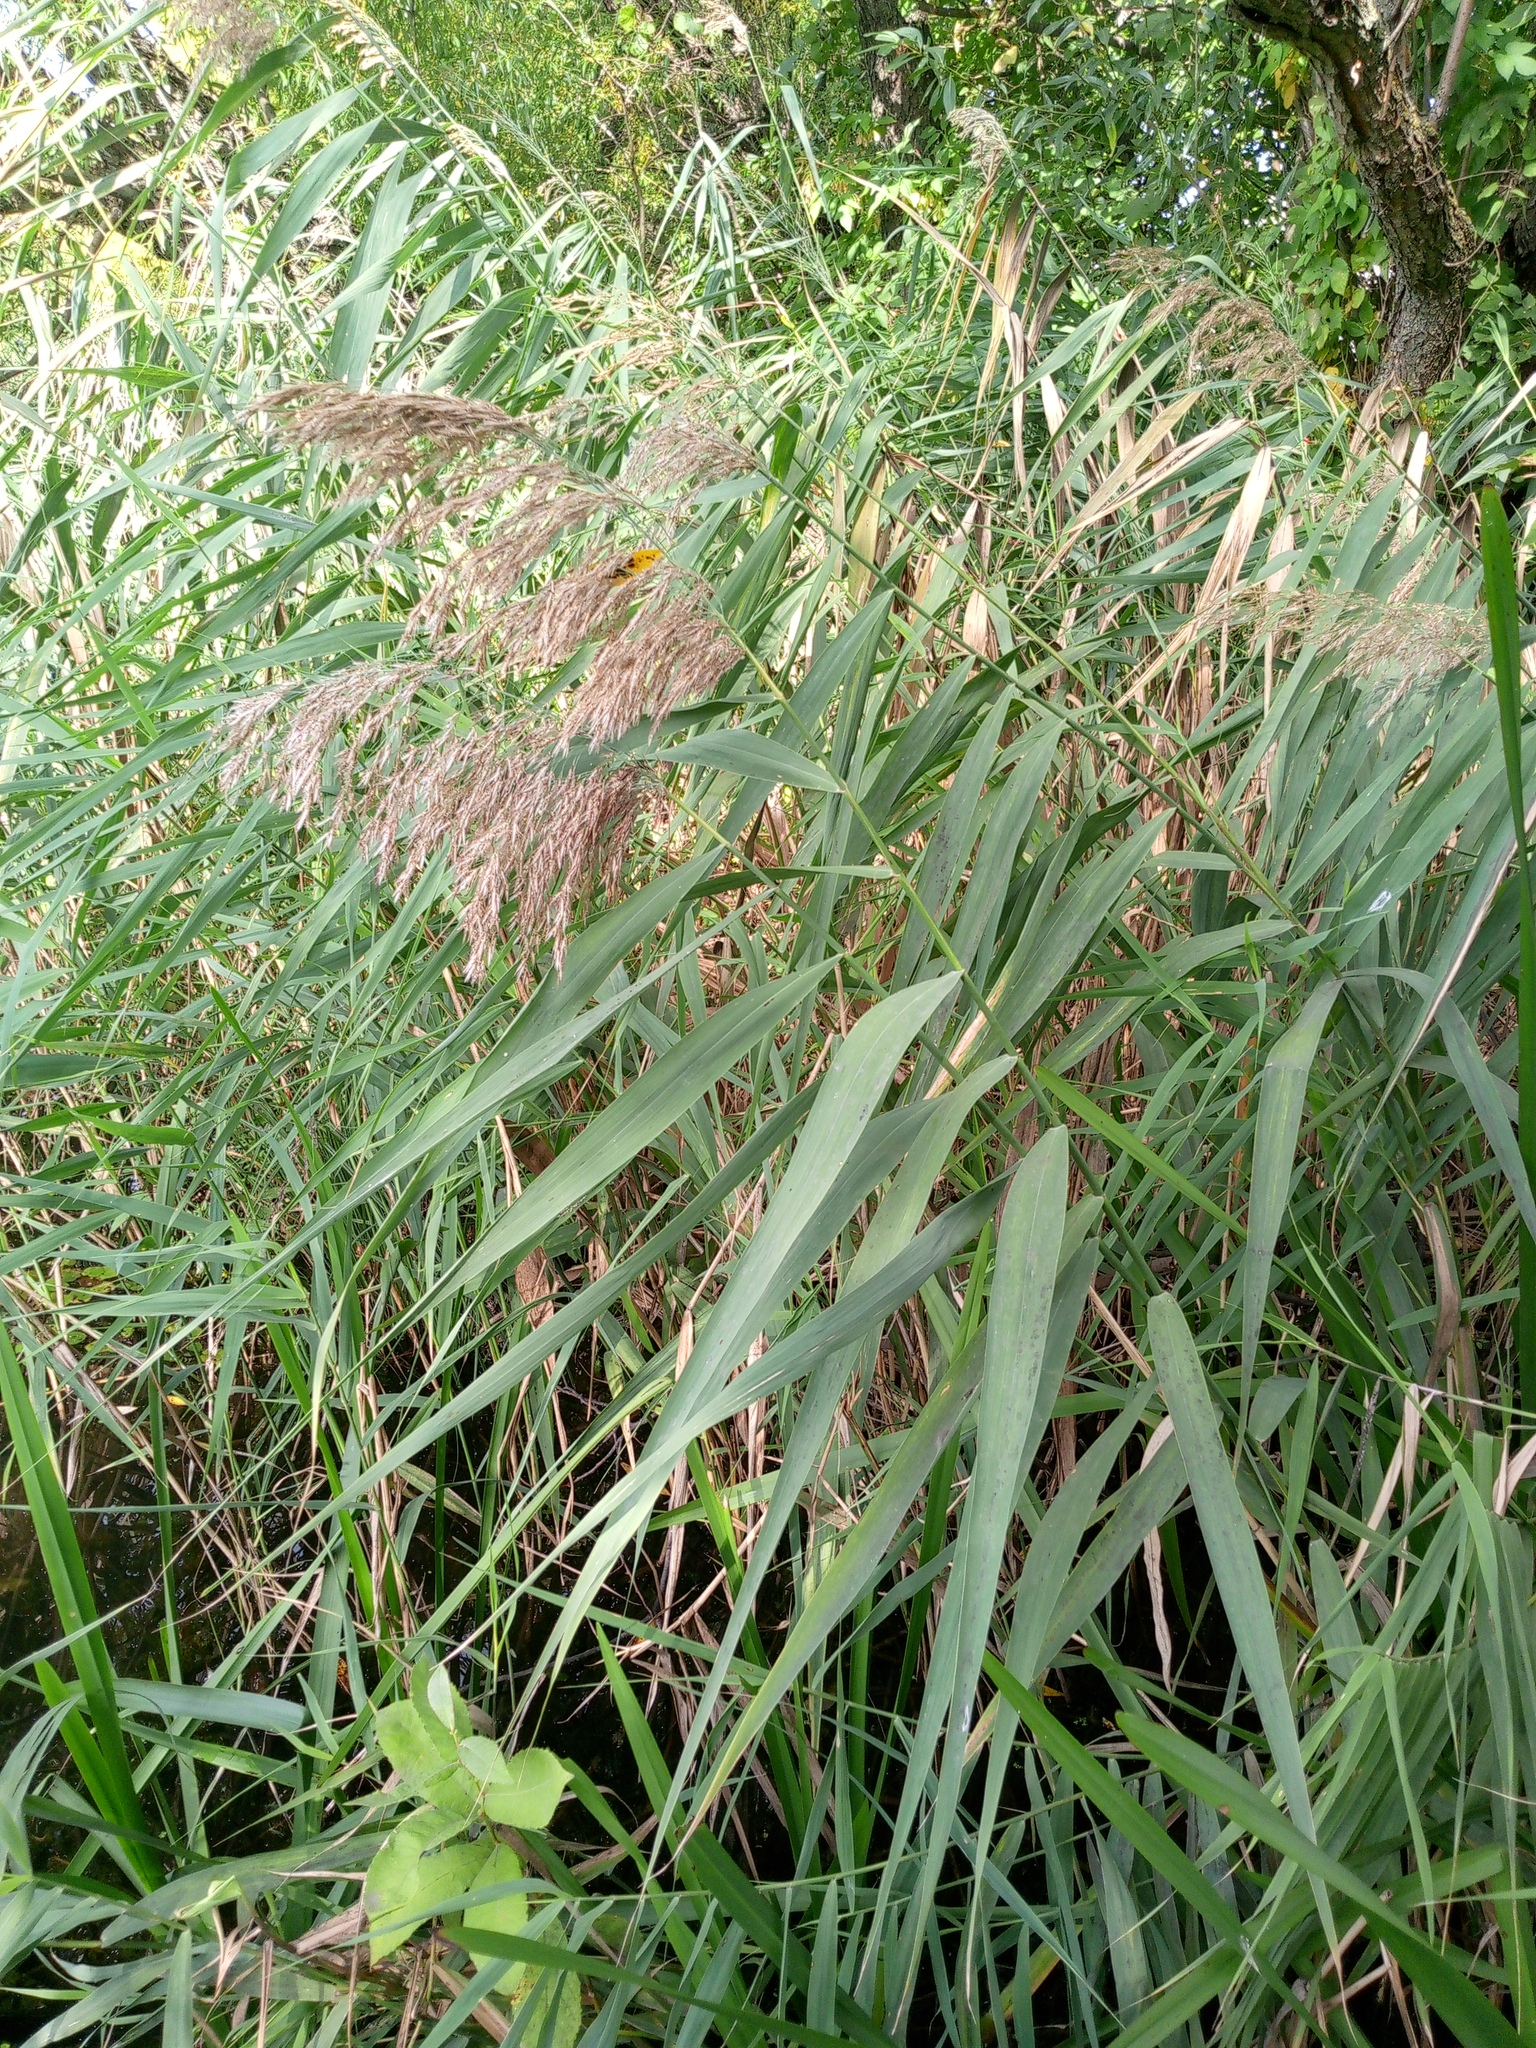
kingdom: Plantae
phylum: Tracheophyta
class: Liliopsida
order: Poales
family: Poaceae
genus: Phragmites
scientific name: Phragmites australis
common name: Common reed
